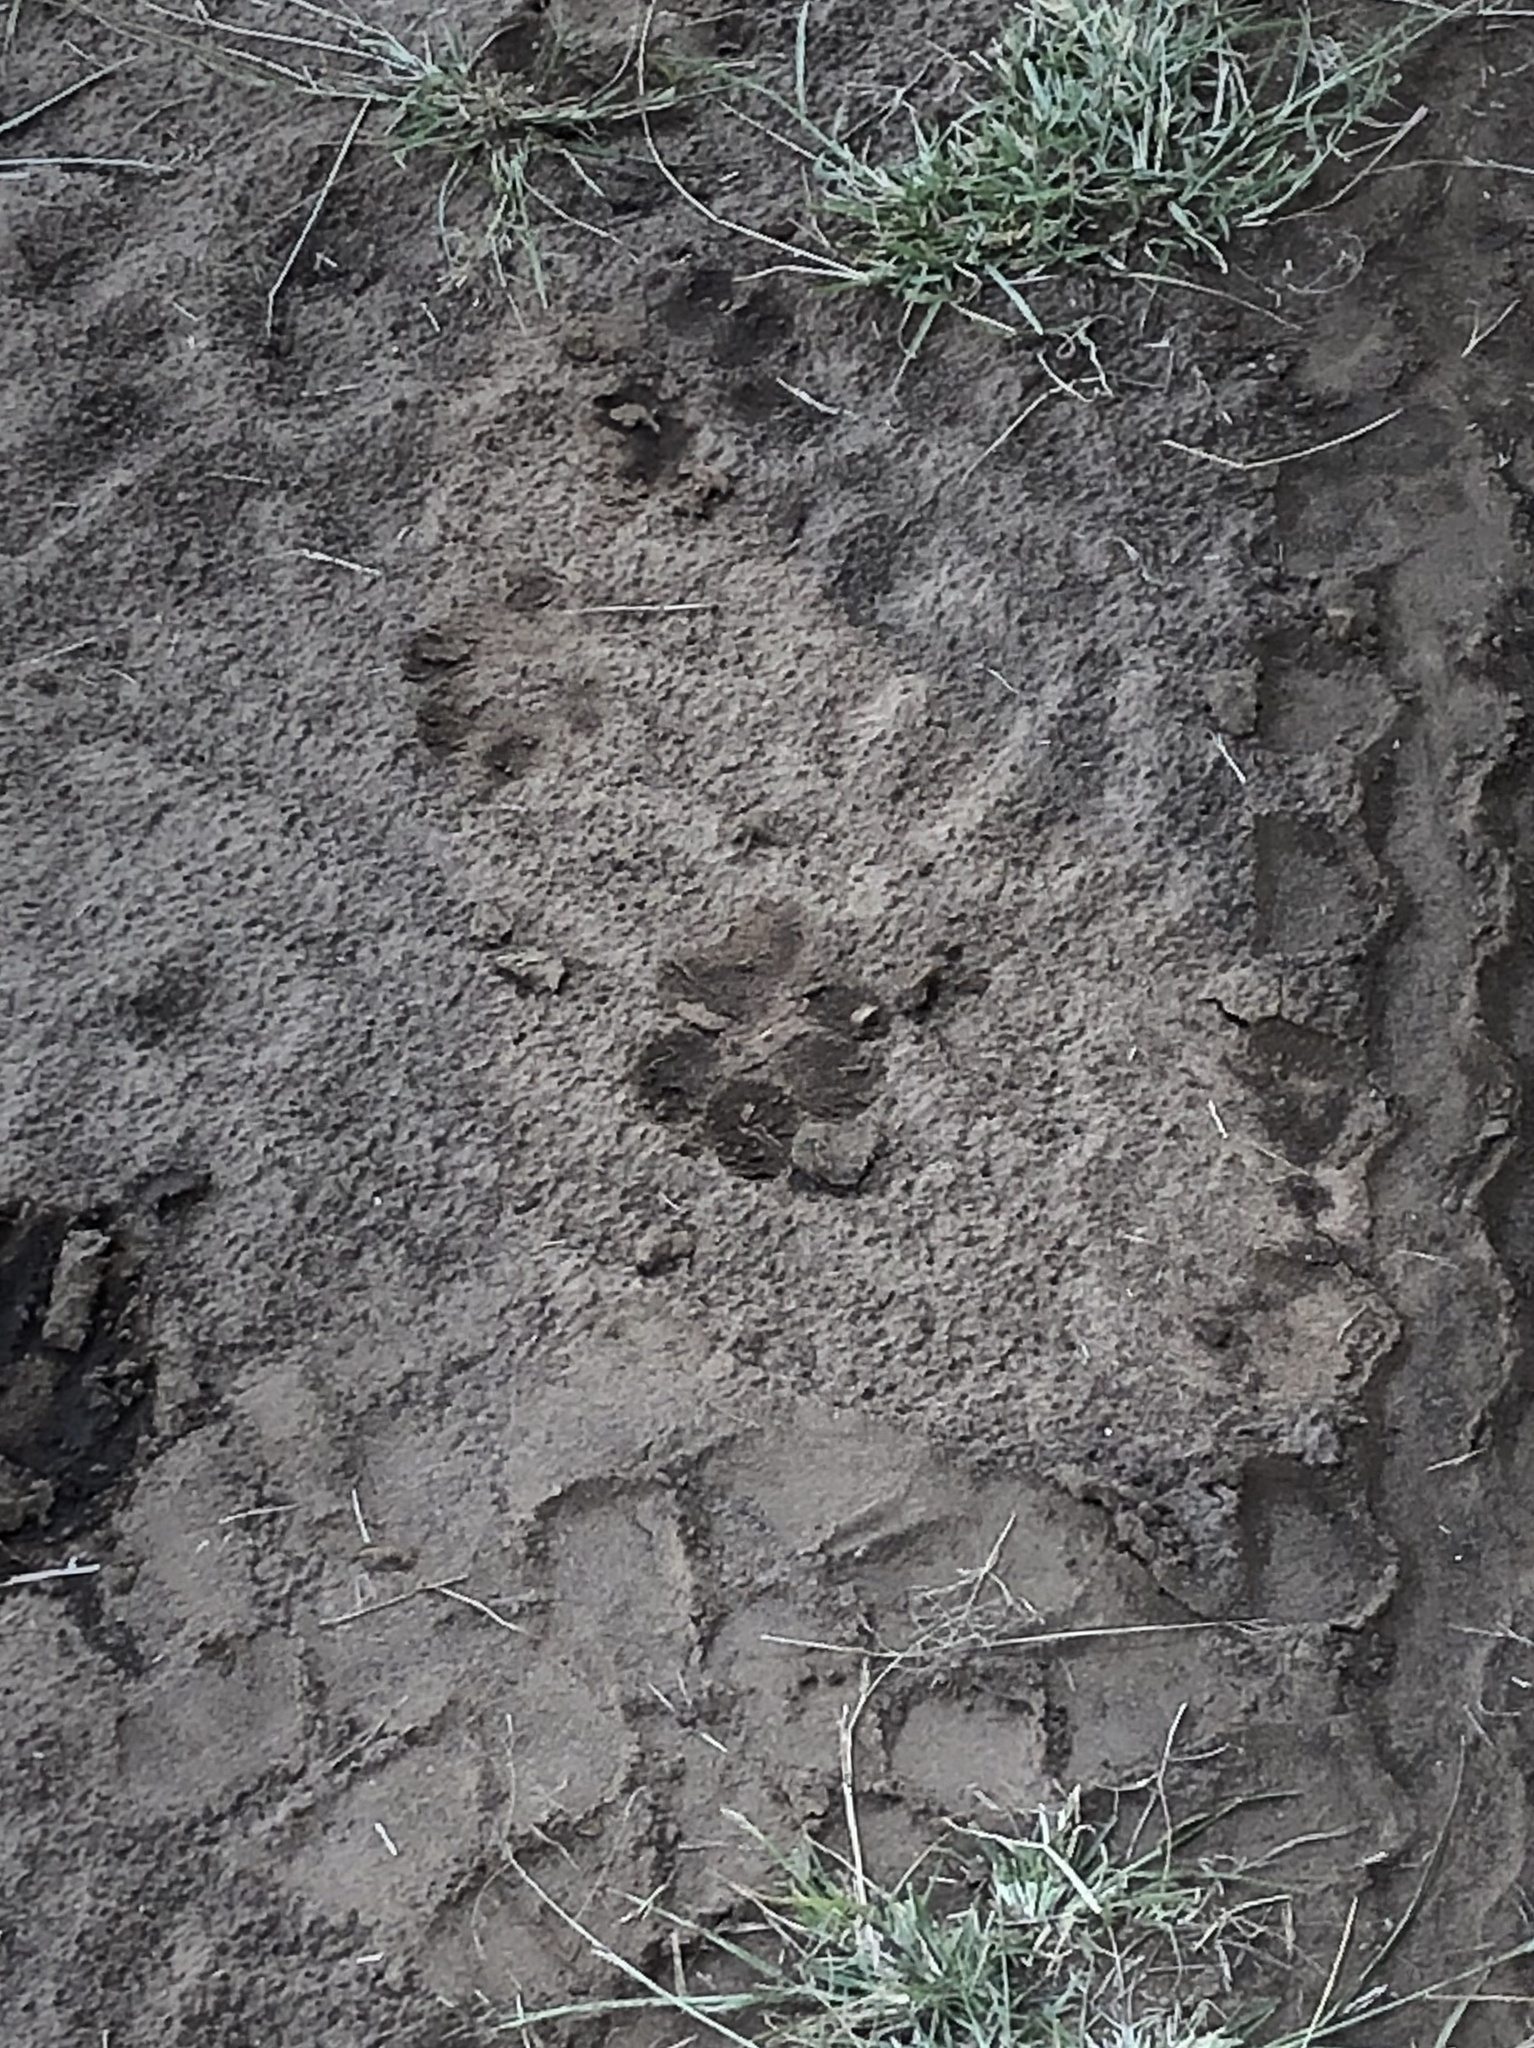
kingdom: Animalia
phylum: Chordata
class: Mammalia
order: Carnivora
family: Hyaenidae
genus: Crocuta
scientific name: Crocuta crocuta
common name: Spotted hyaena
